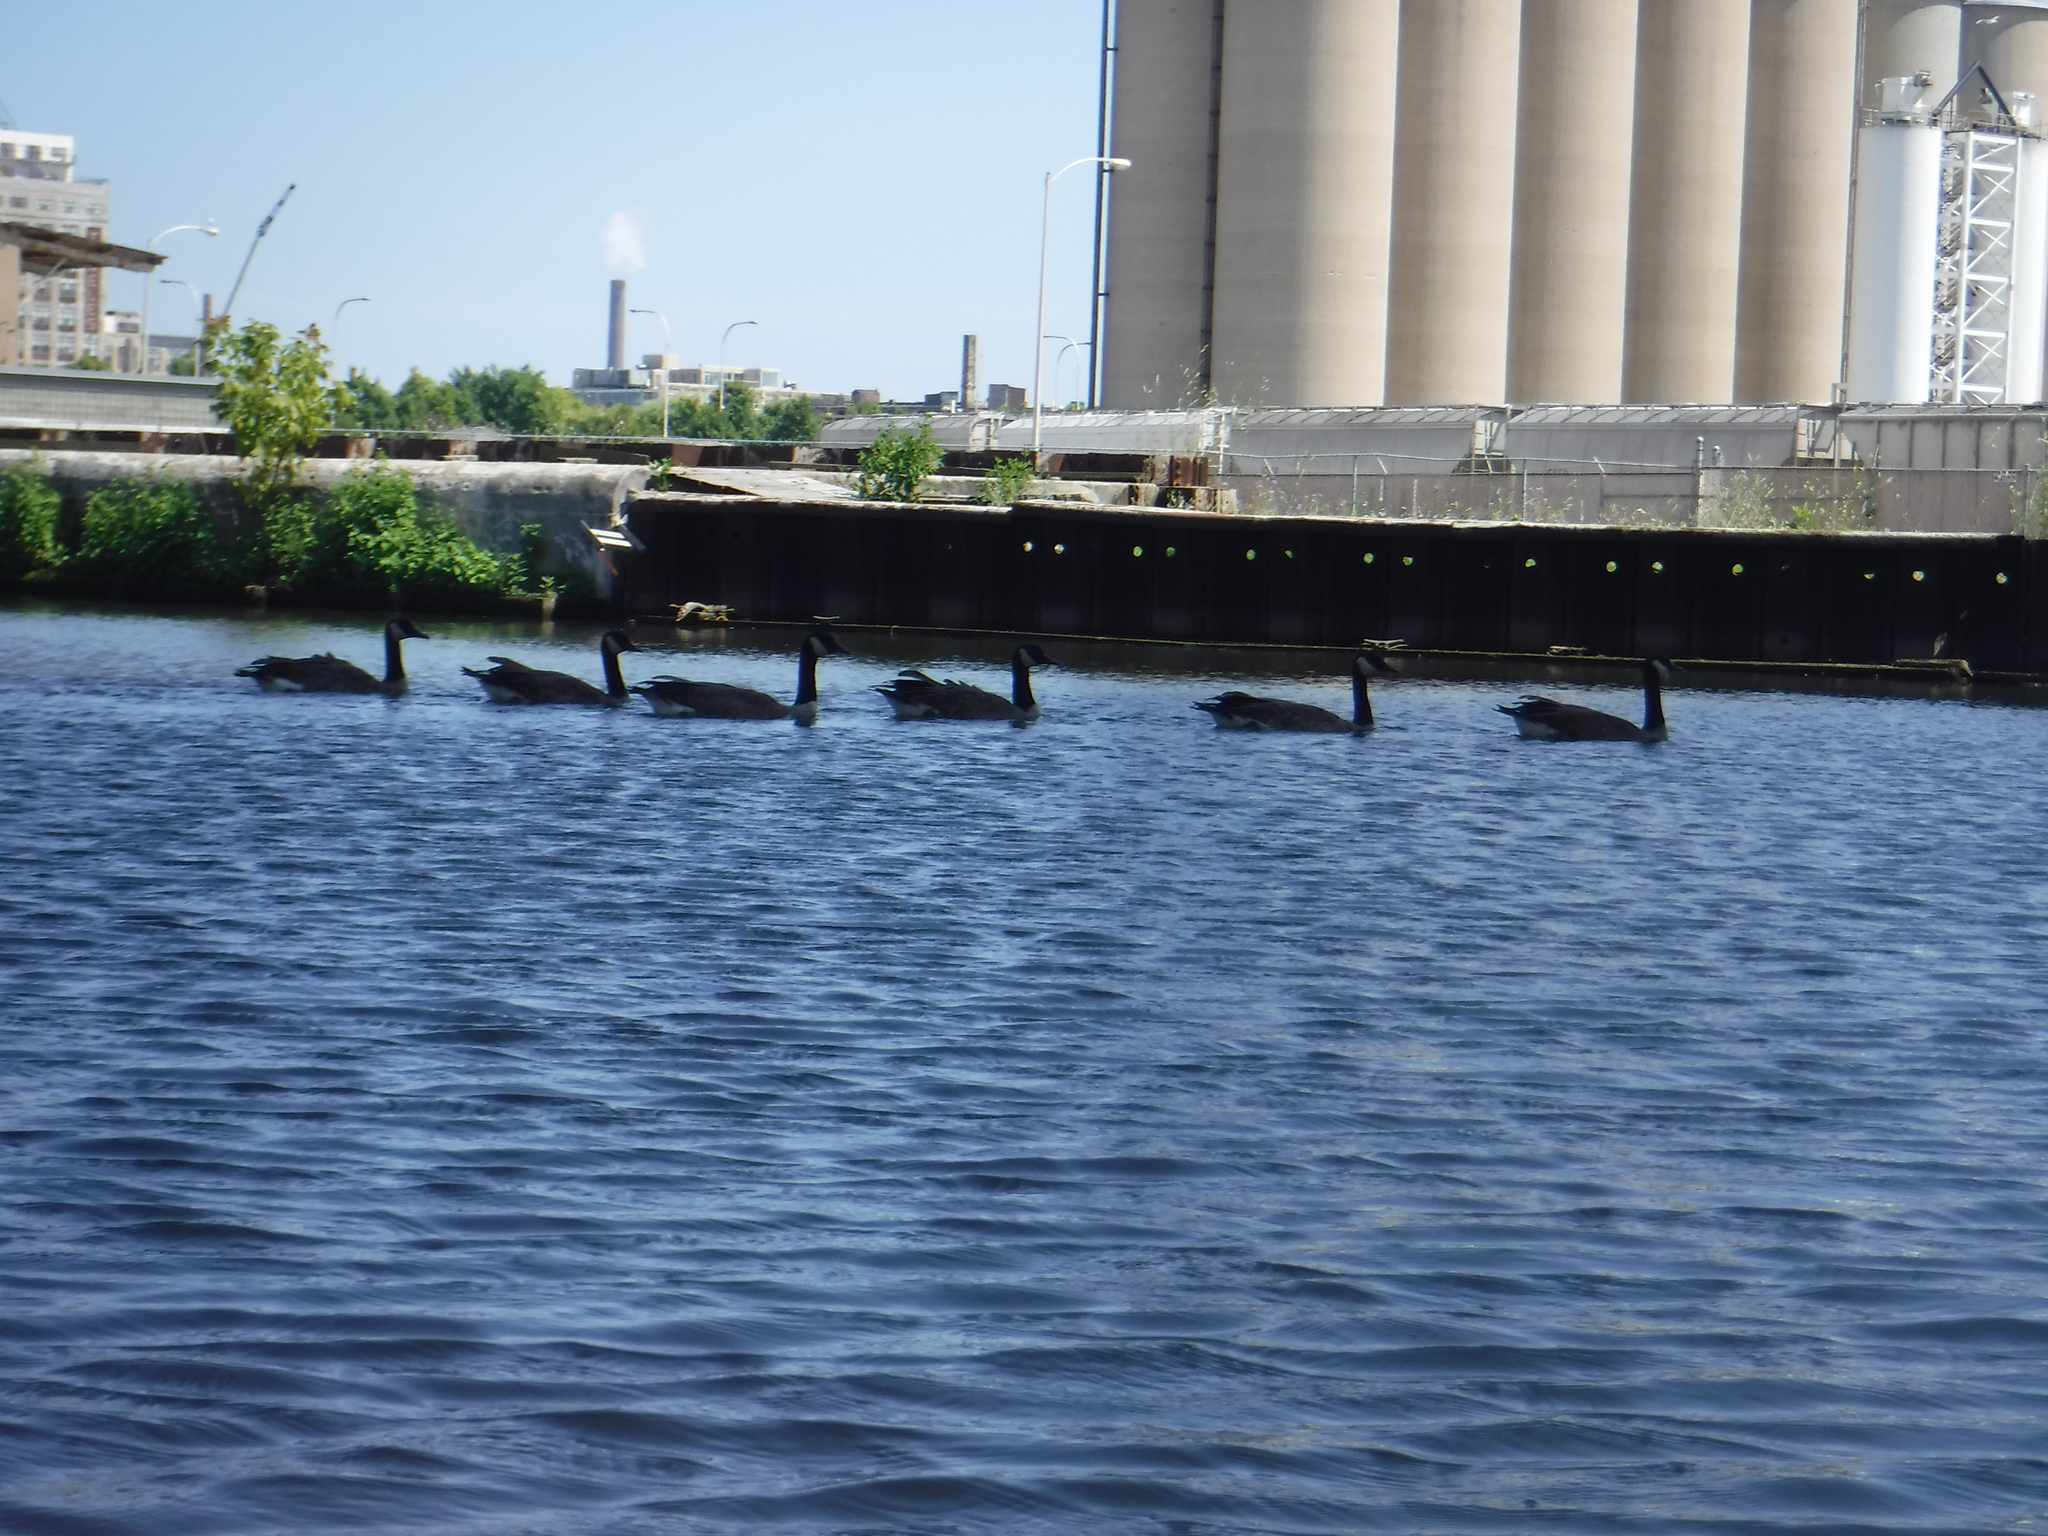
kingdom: Animalia
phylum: Chordata
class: Aves
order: Anseriformes
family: Anatidae
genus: Branta
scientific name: Branta canadensis
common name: Canada goose
